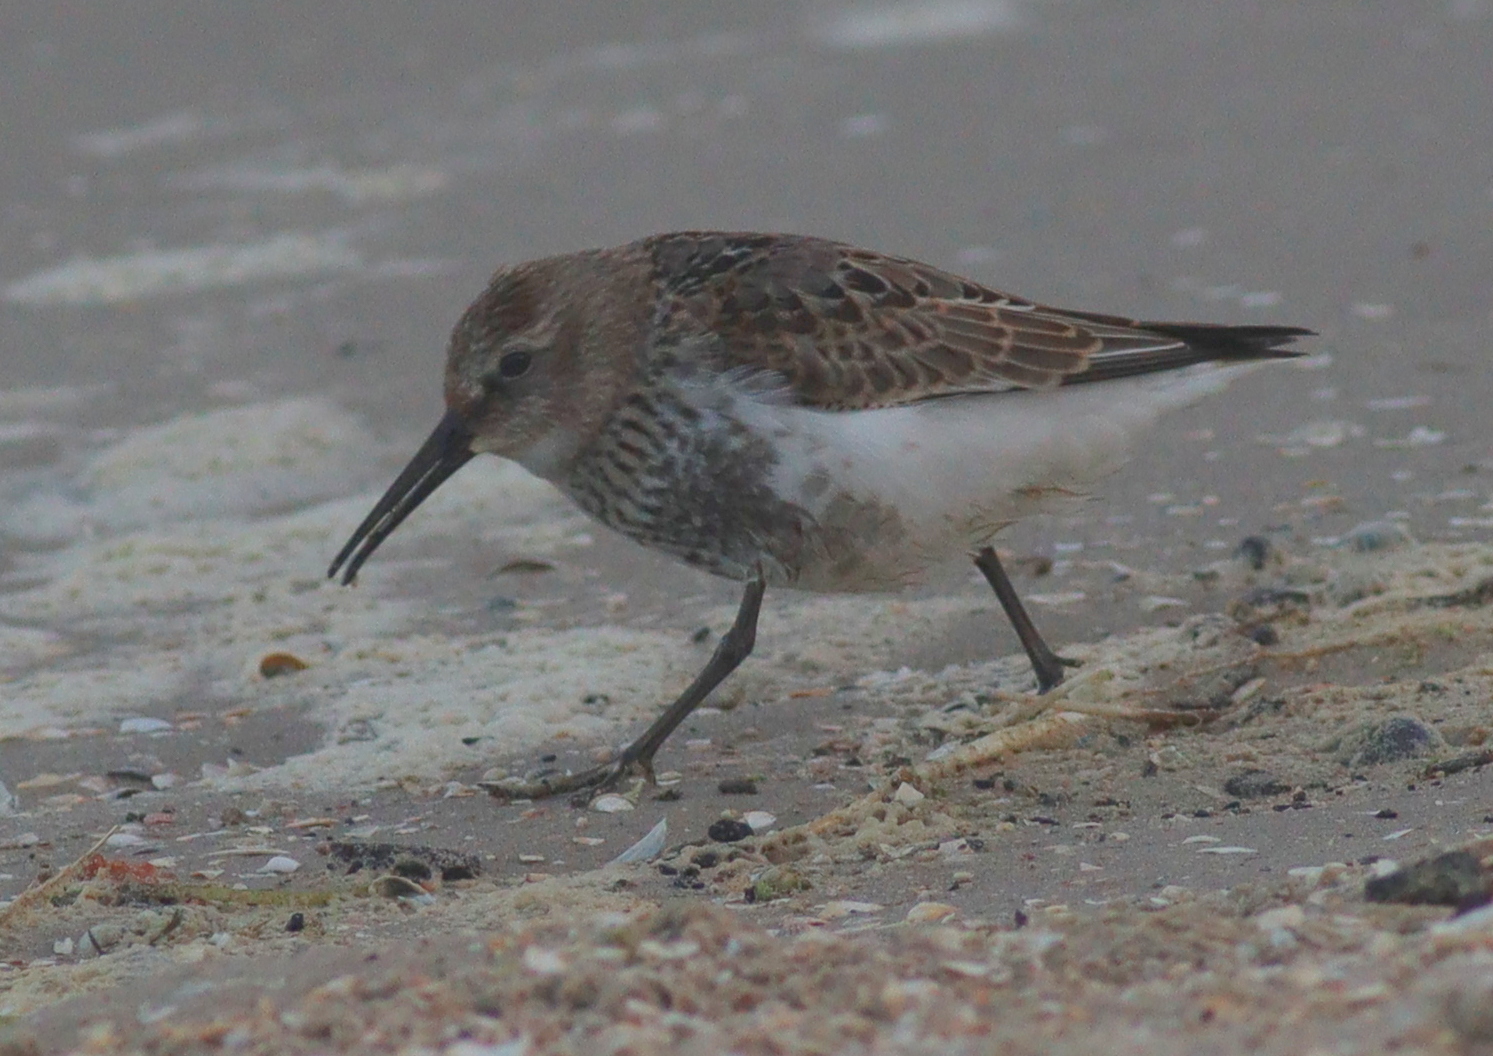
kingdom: Animalia
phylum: Chordata
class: Aves
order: Charadriiformes
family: Scolopacidae
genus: Calidris
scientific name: Calidris alpina
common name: Dunlin
